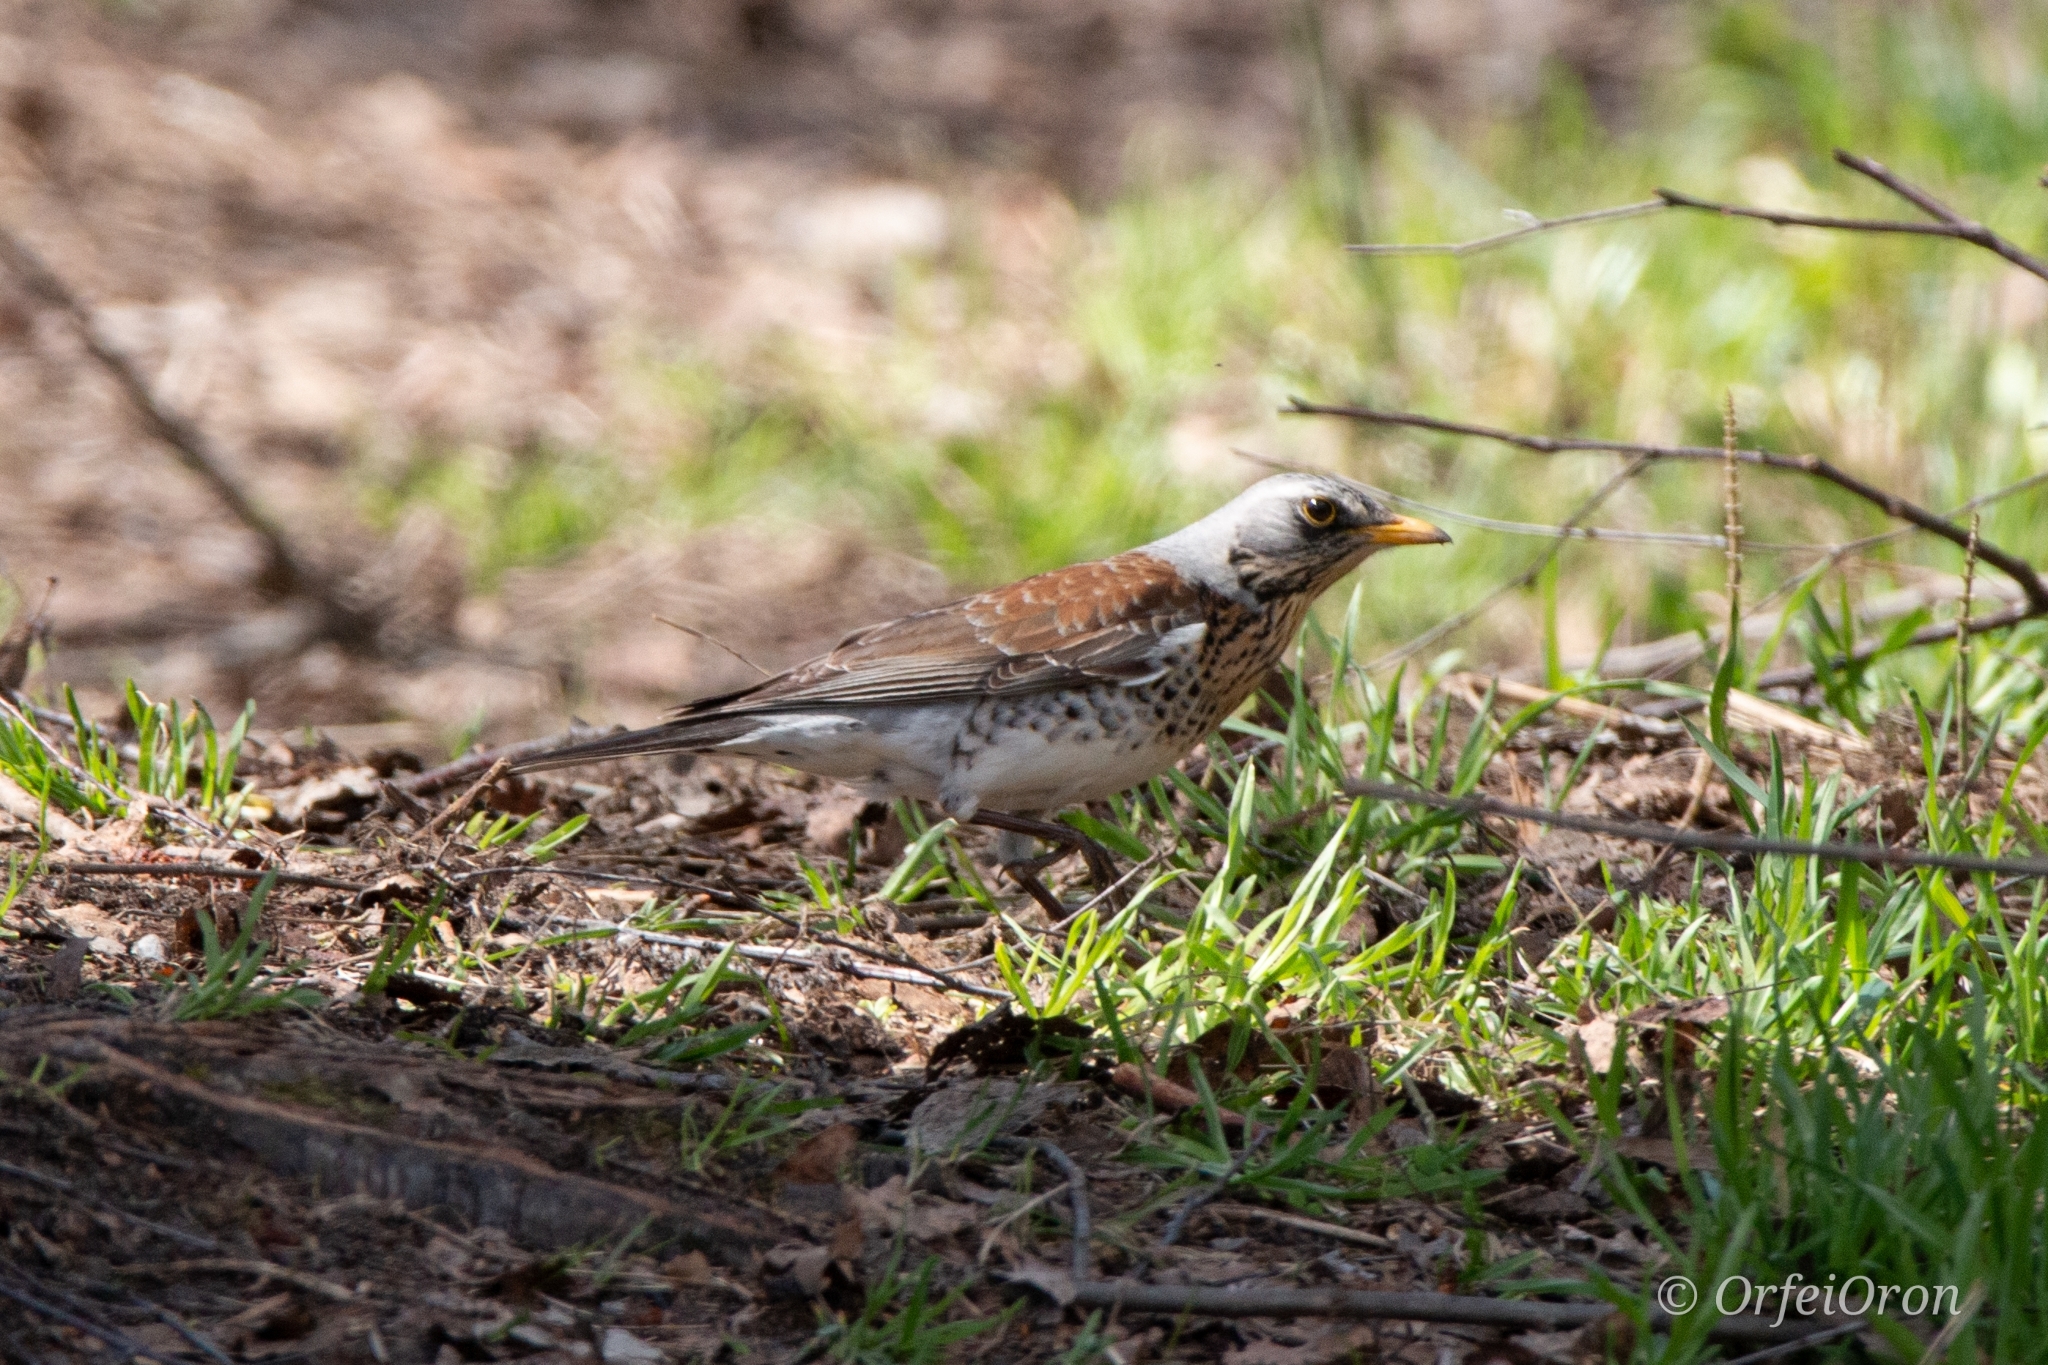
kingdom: Animalia
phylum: Chordata
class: Aves
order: Passeriformes
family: Turdidae
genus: Turdus
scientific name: Turdus pilaris
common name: Fieldfare
